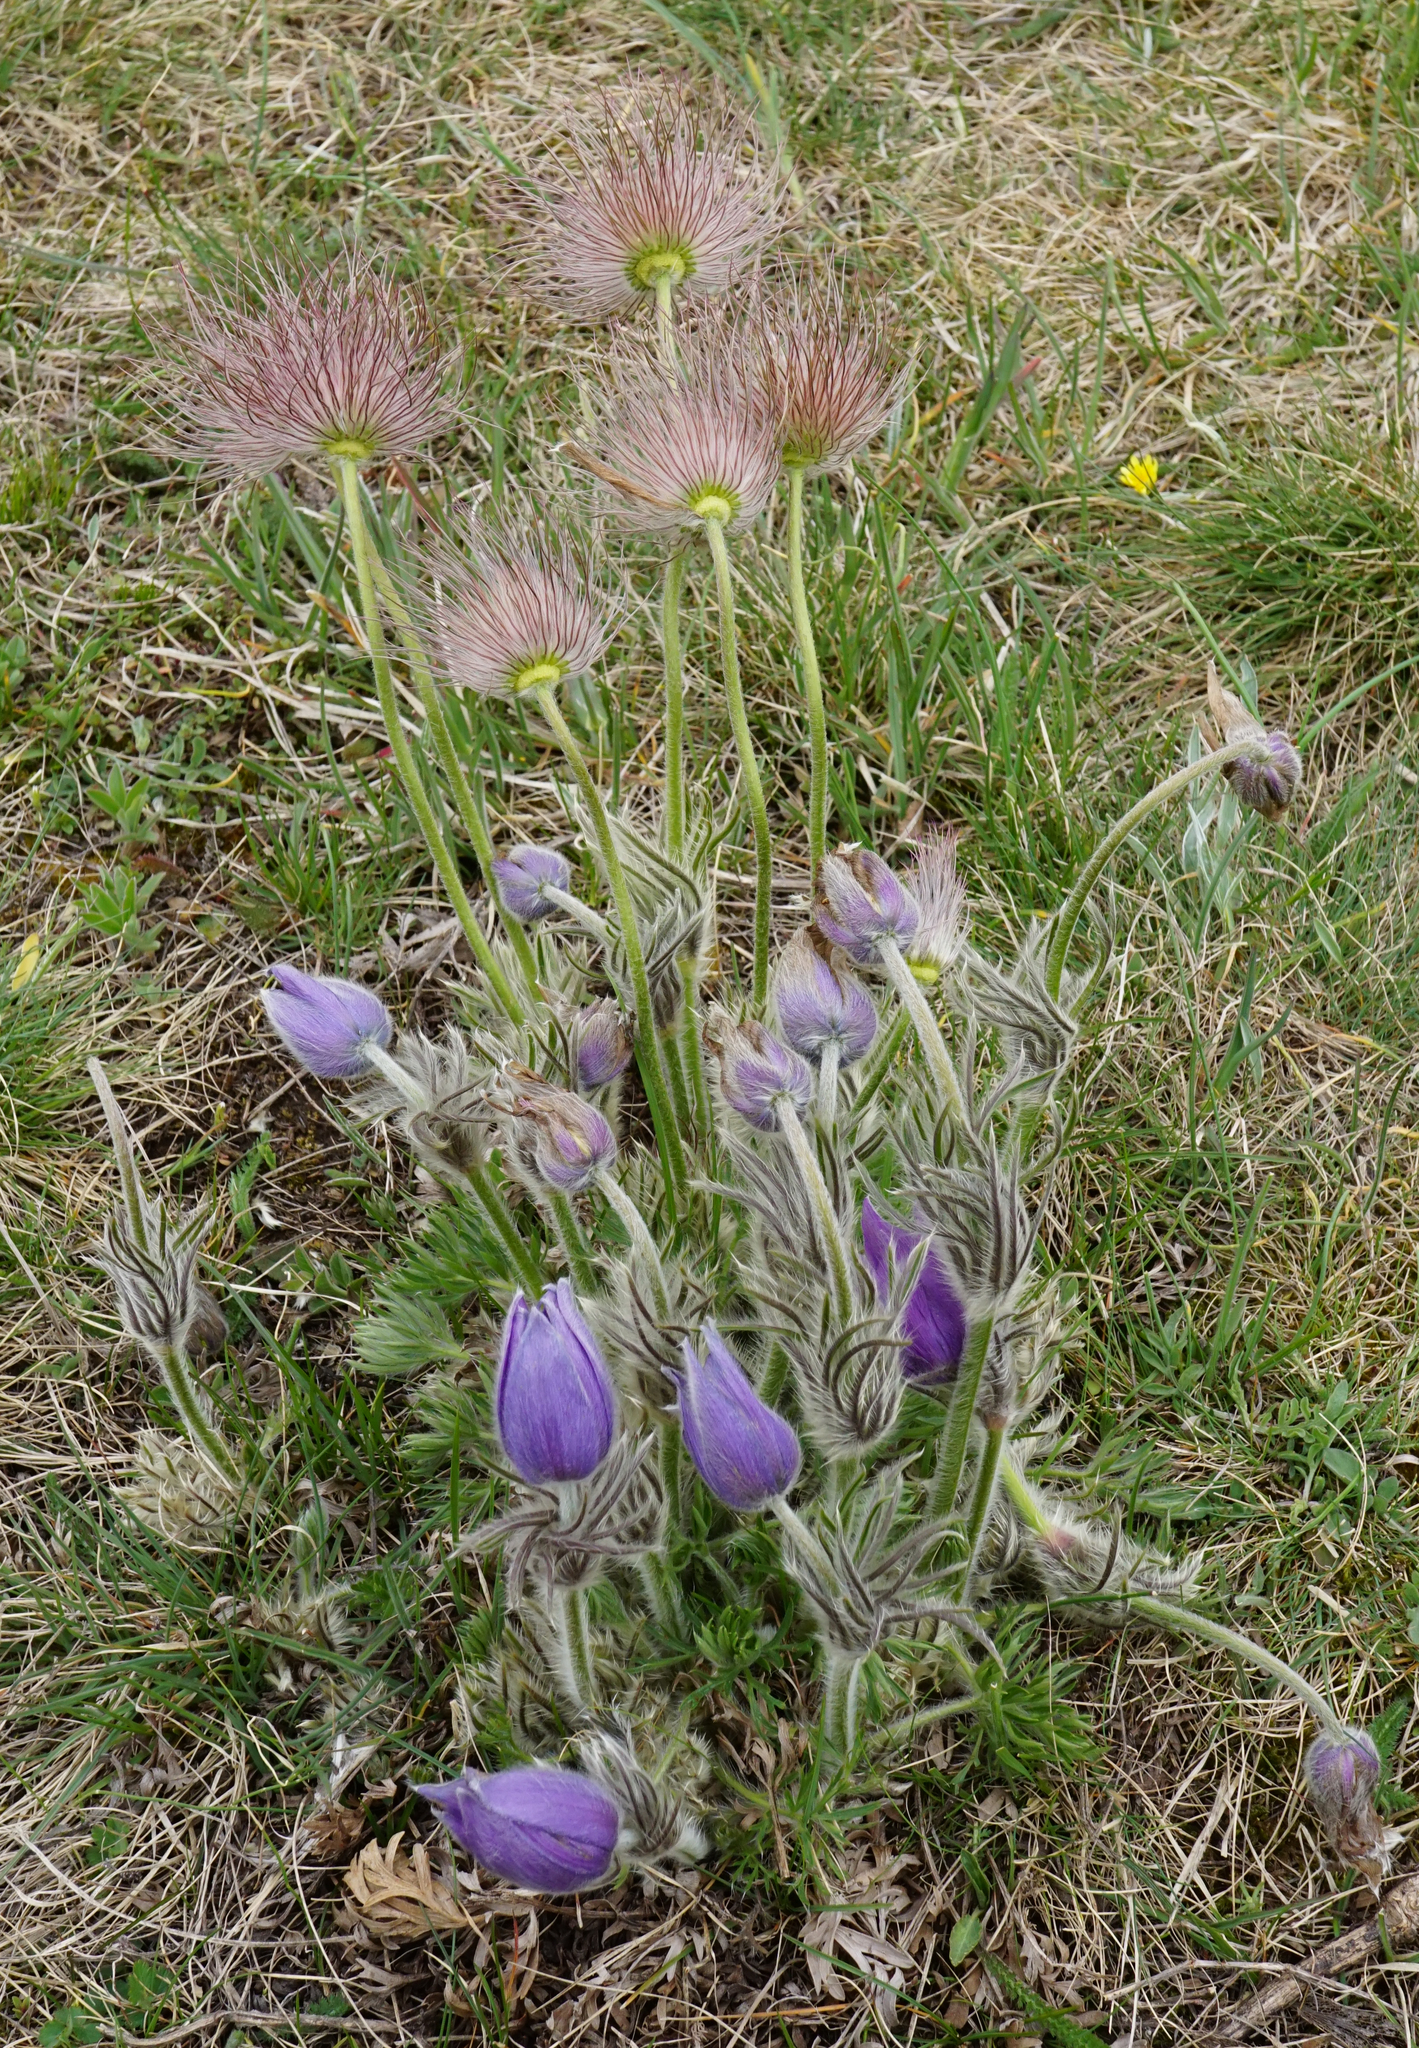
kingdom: Plantae
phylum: Tracheophyta
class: Magnoliopsida
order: Ranunculales
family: Ranunculaceae
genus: Pulsatilla
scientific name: Pulsatilla grandis
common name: Greater pasque flower
